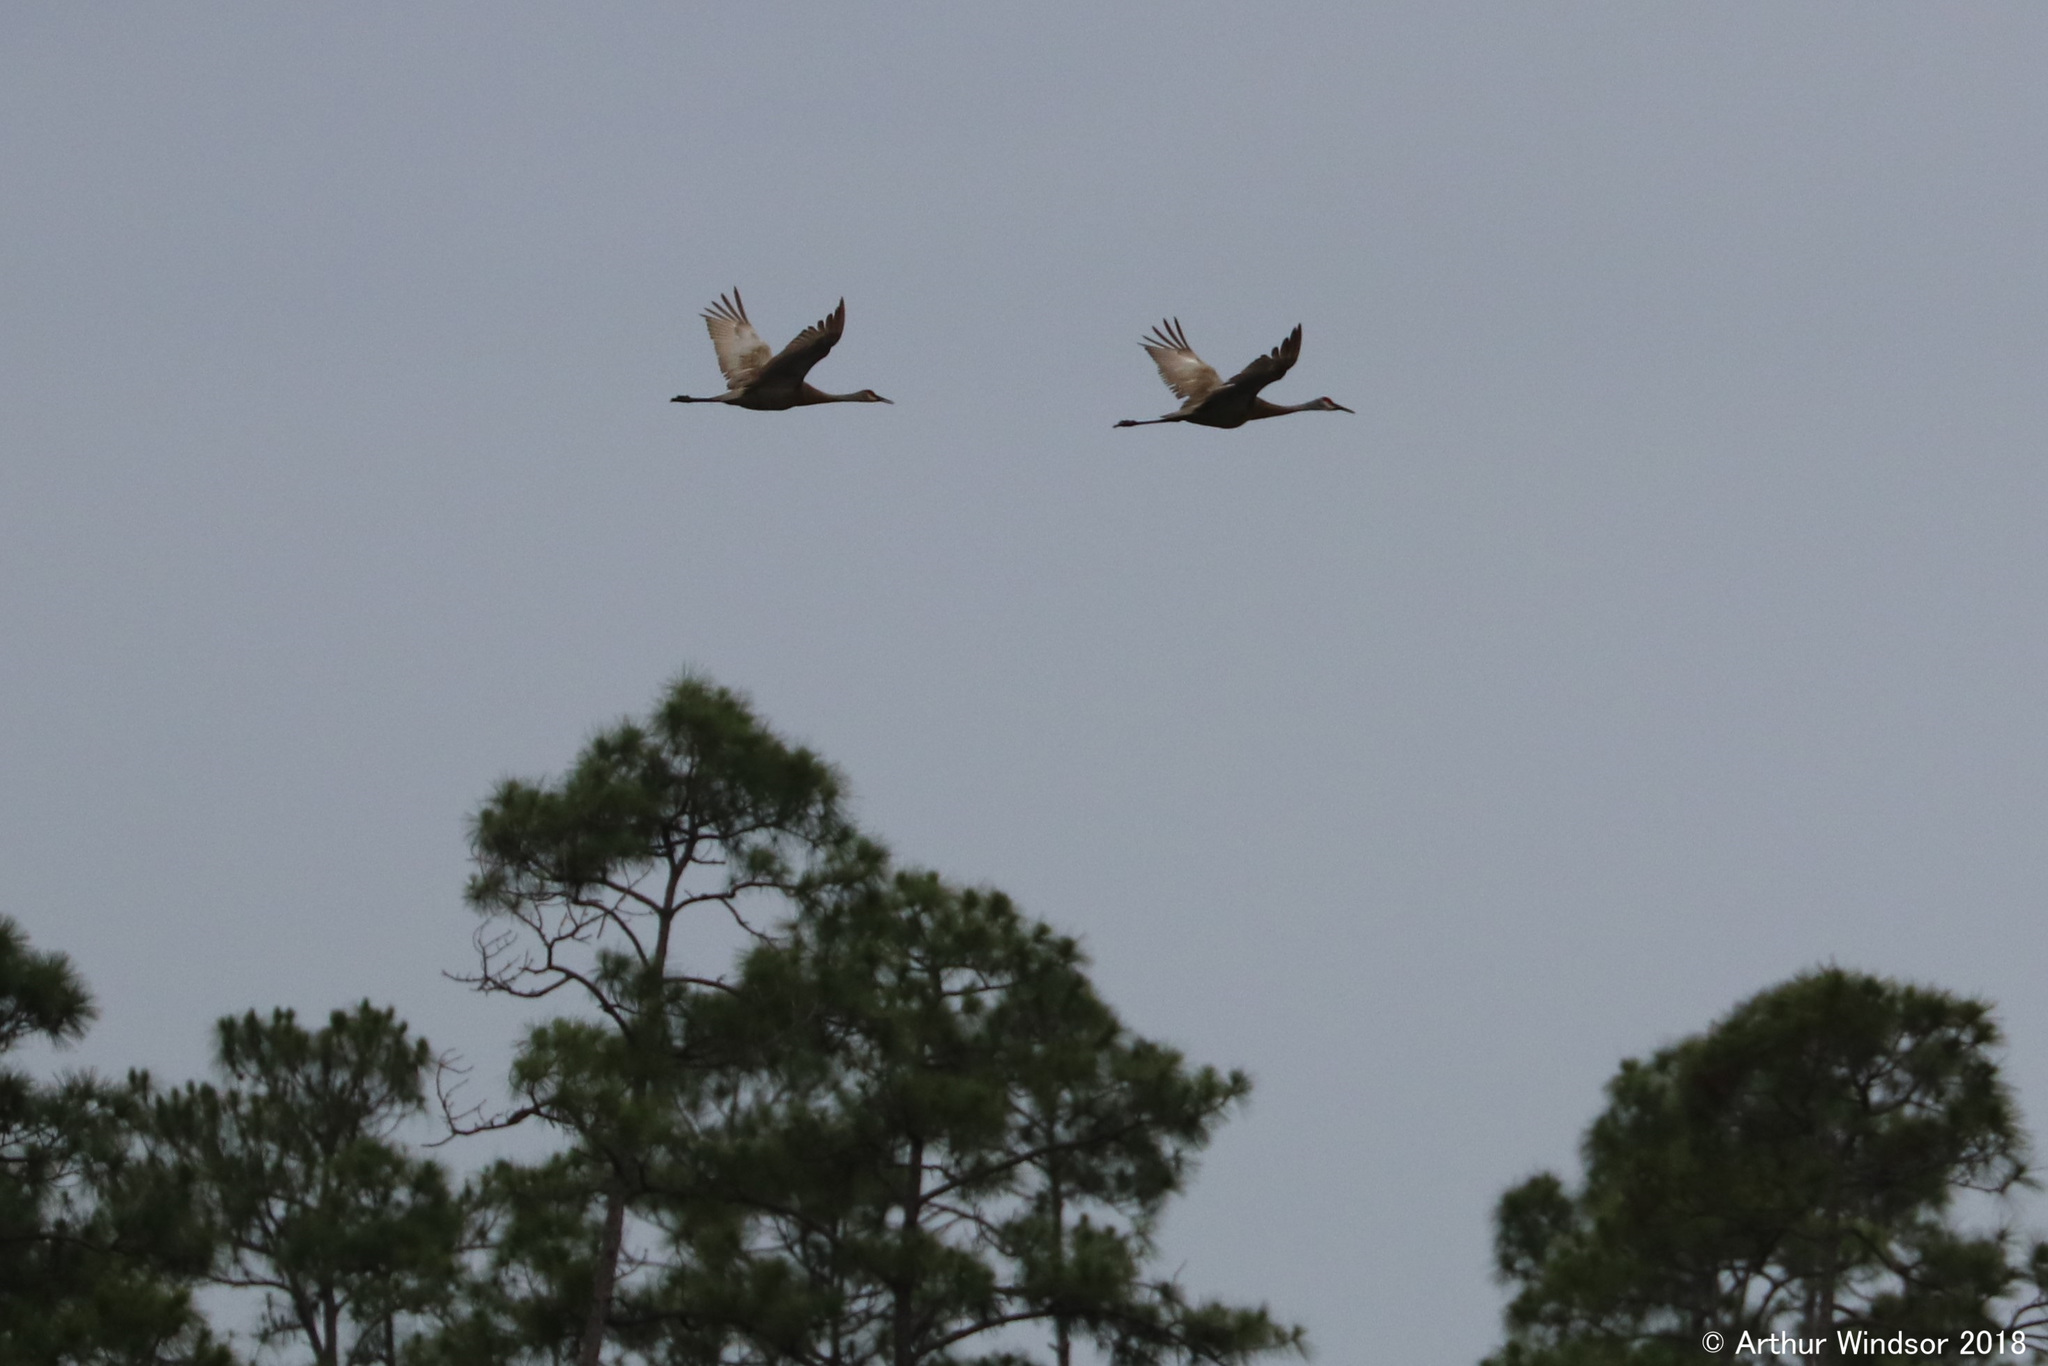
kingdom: Animalia
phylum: Chordata
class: Aves
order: Gruiformes
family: Gruidae
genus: Grus
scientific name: Grus canadensis
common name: Sandhill crane
